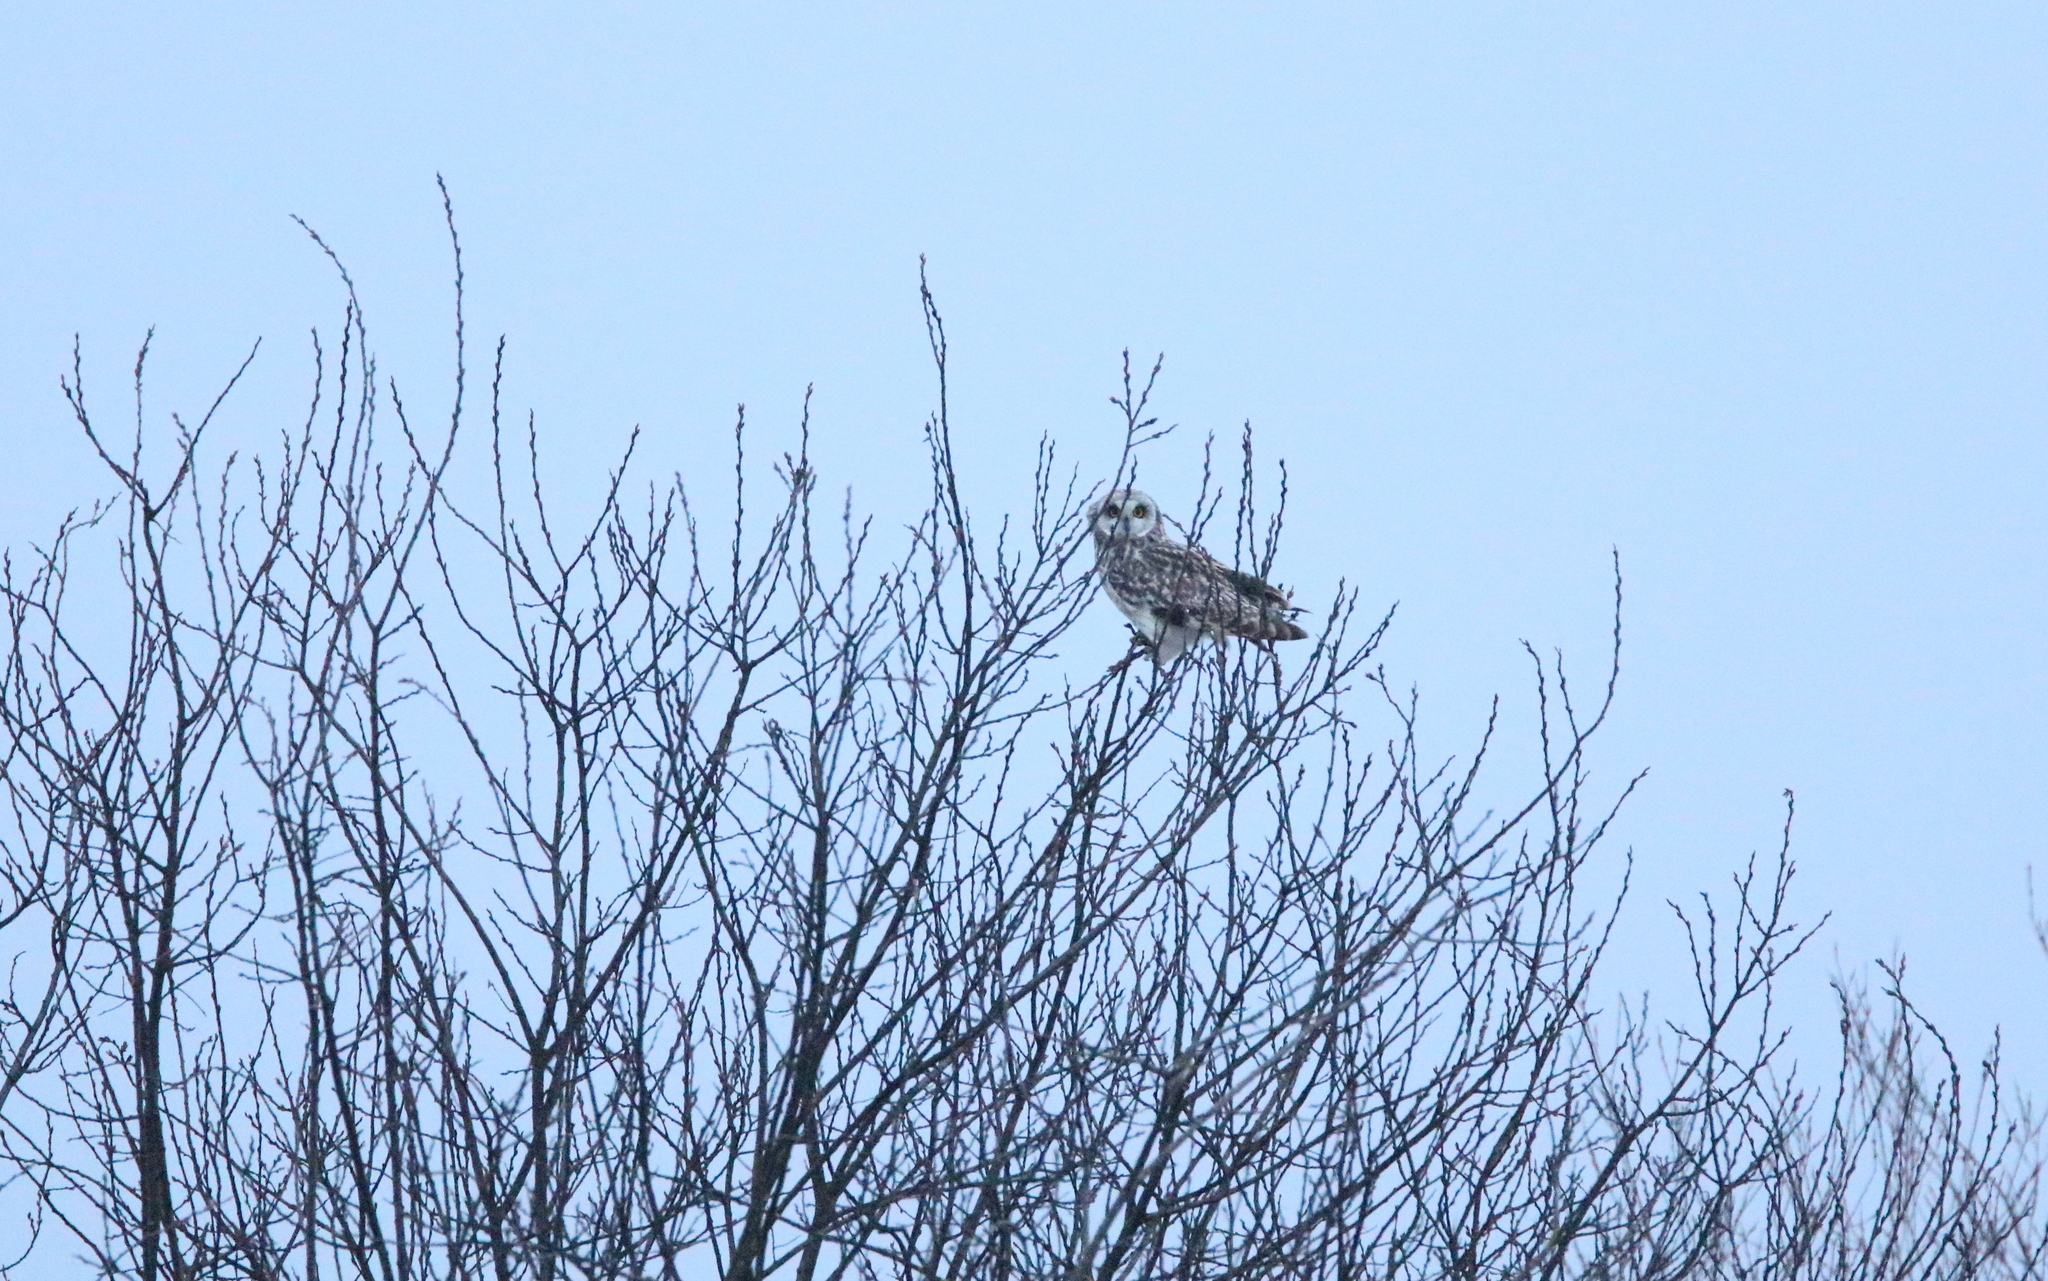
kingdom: Animalia
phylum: Chordata
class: Aves
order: Strigiformes
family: Strigidae
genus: Asio
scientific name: Asio flammeus
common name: Short-eared owl
